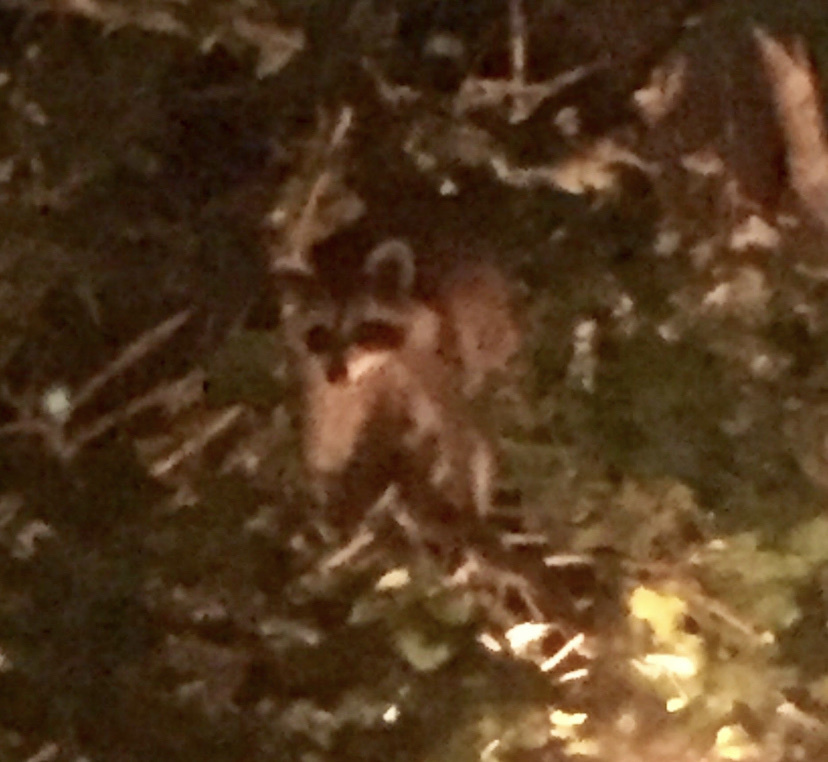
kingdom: Animalia
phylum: Chordata
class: Mammalia
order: Carnivora
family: Procyonidae
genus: Procyon
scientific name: Procyon lotor
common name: Raccoon
